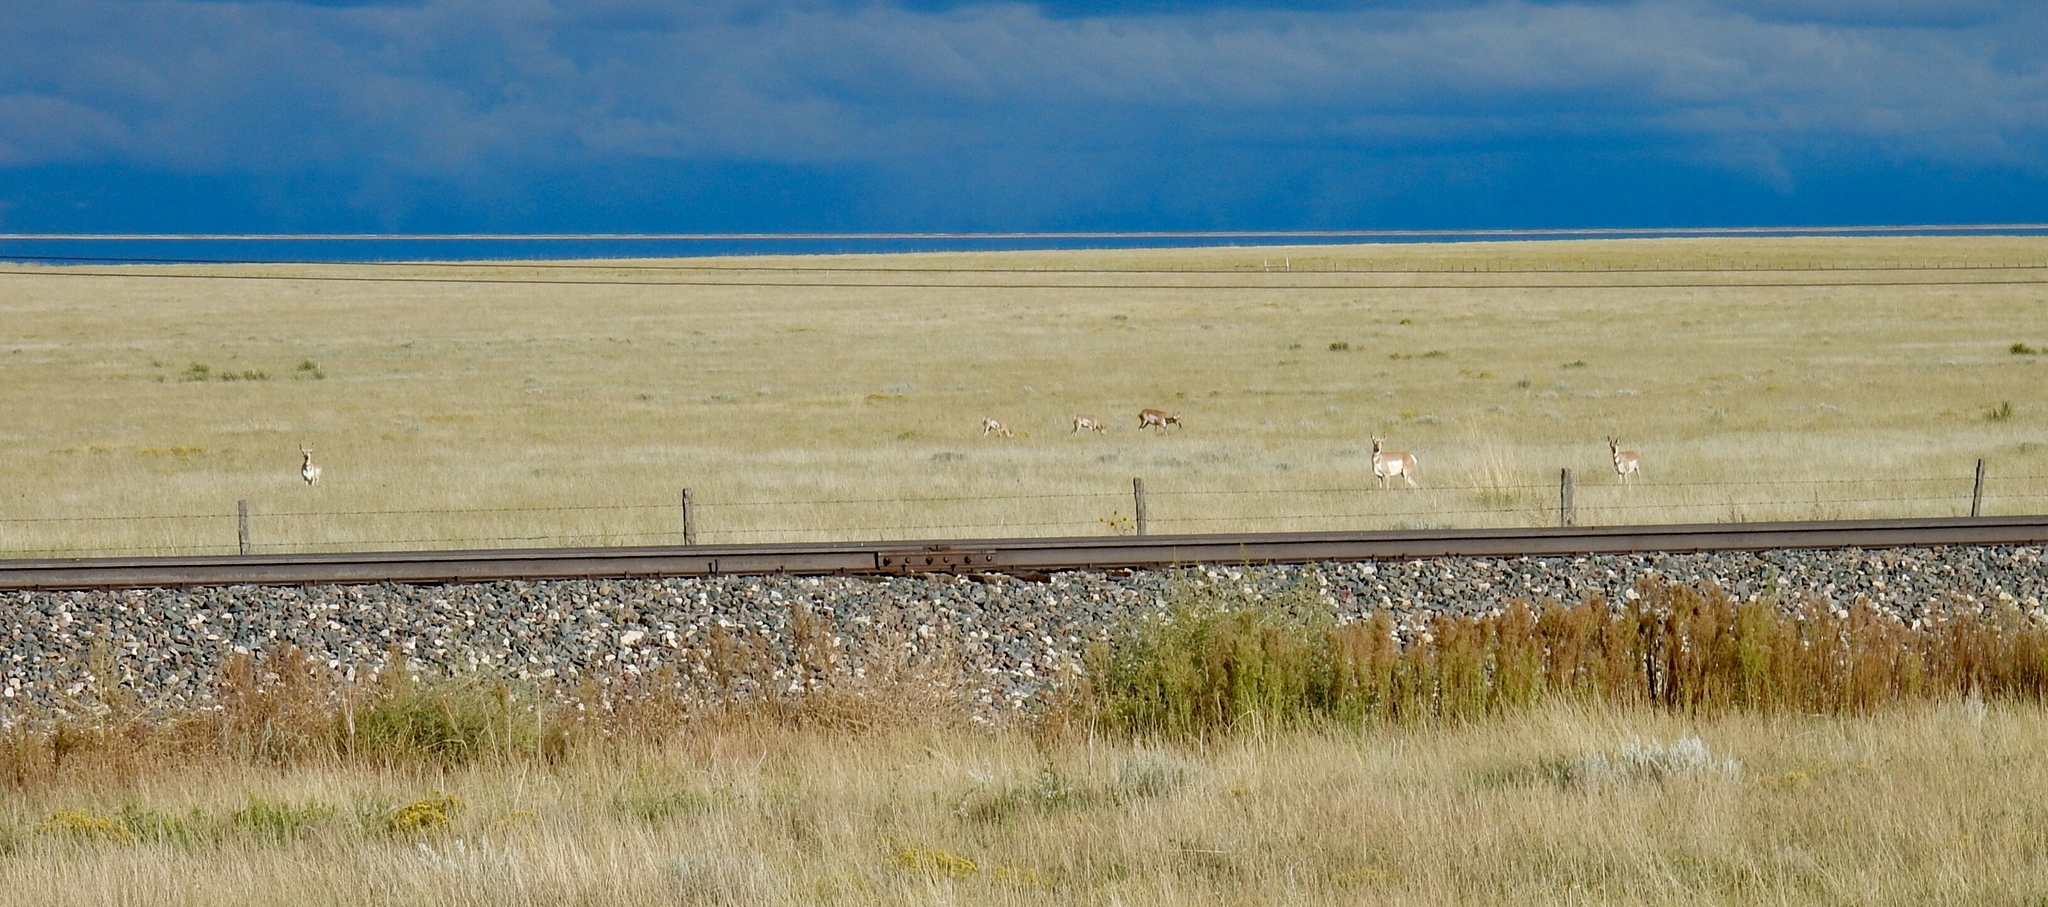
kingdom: Animalia
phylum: Chordata
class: Mammalia
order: Artiodactyla
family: Antilocapridae
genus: Antilocapra
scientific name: Antilocapra americana
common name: Pronghorn
